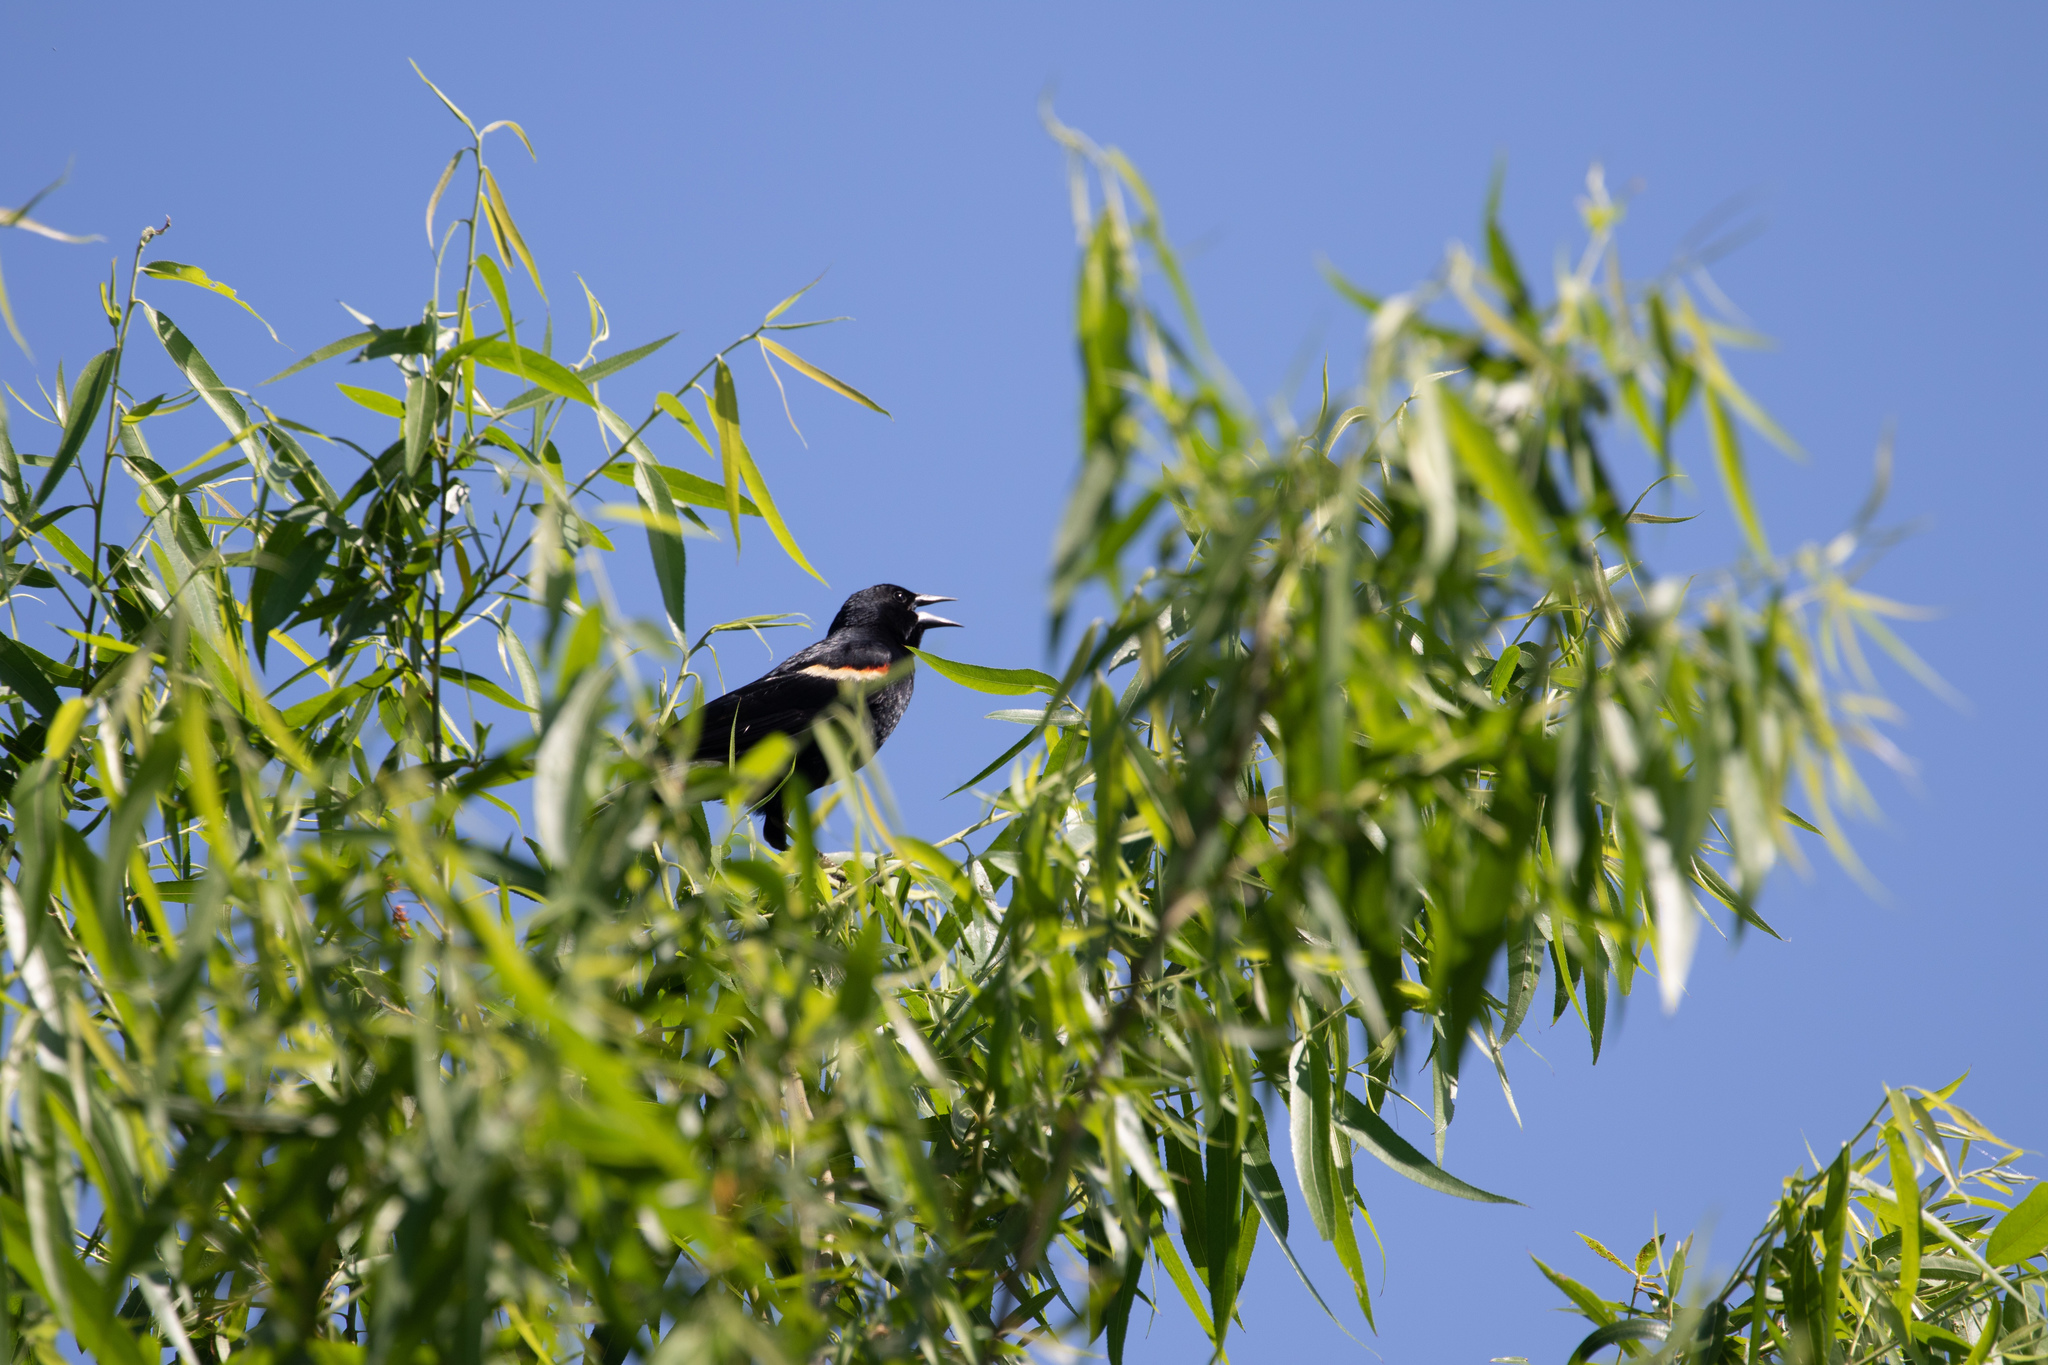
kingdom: Animalia
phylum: Chordata
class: Aves
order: Passeriformes
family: Icteridae
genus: Agelaius
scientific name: Agelaius phoeniceus
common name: Red-winged blackbird
